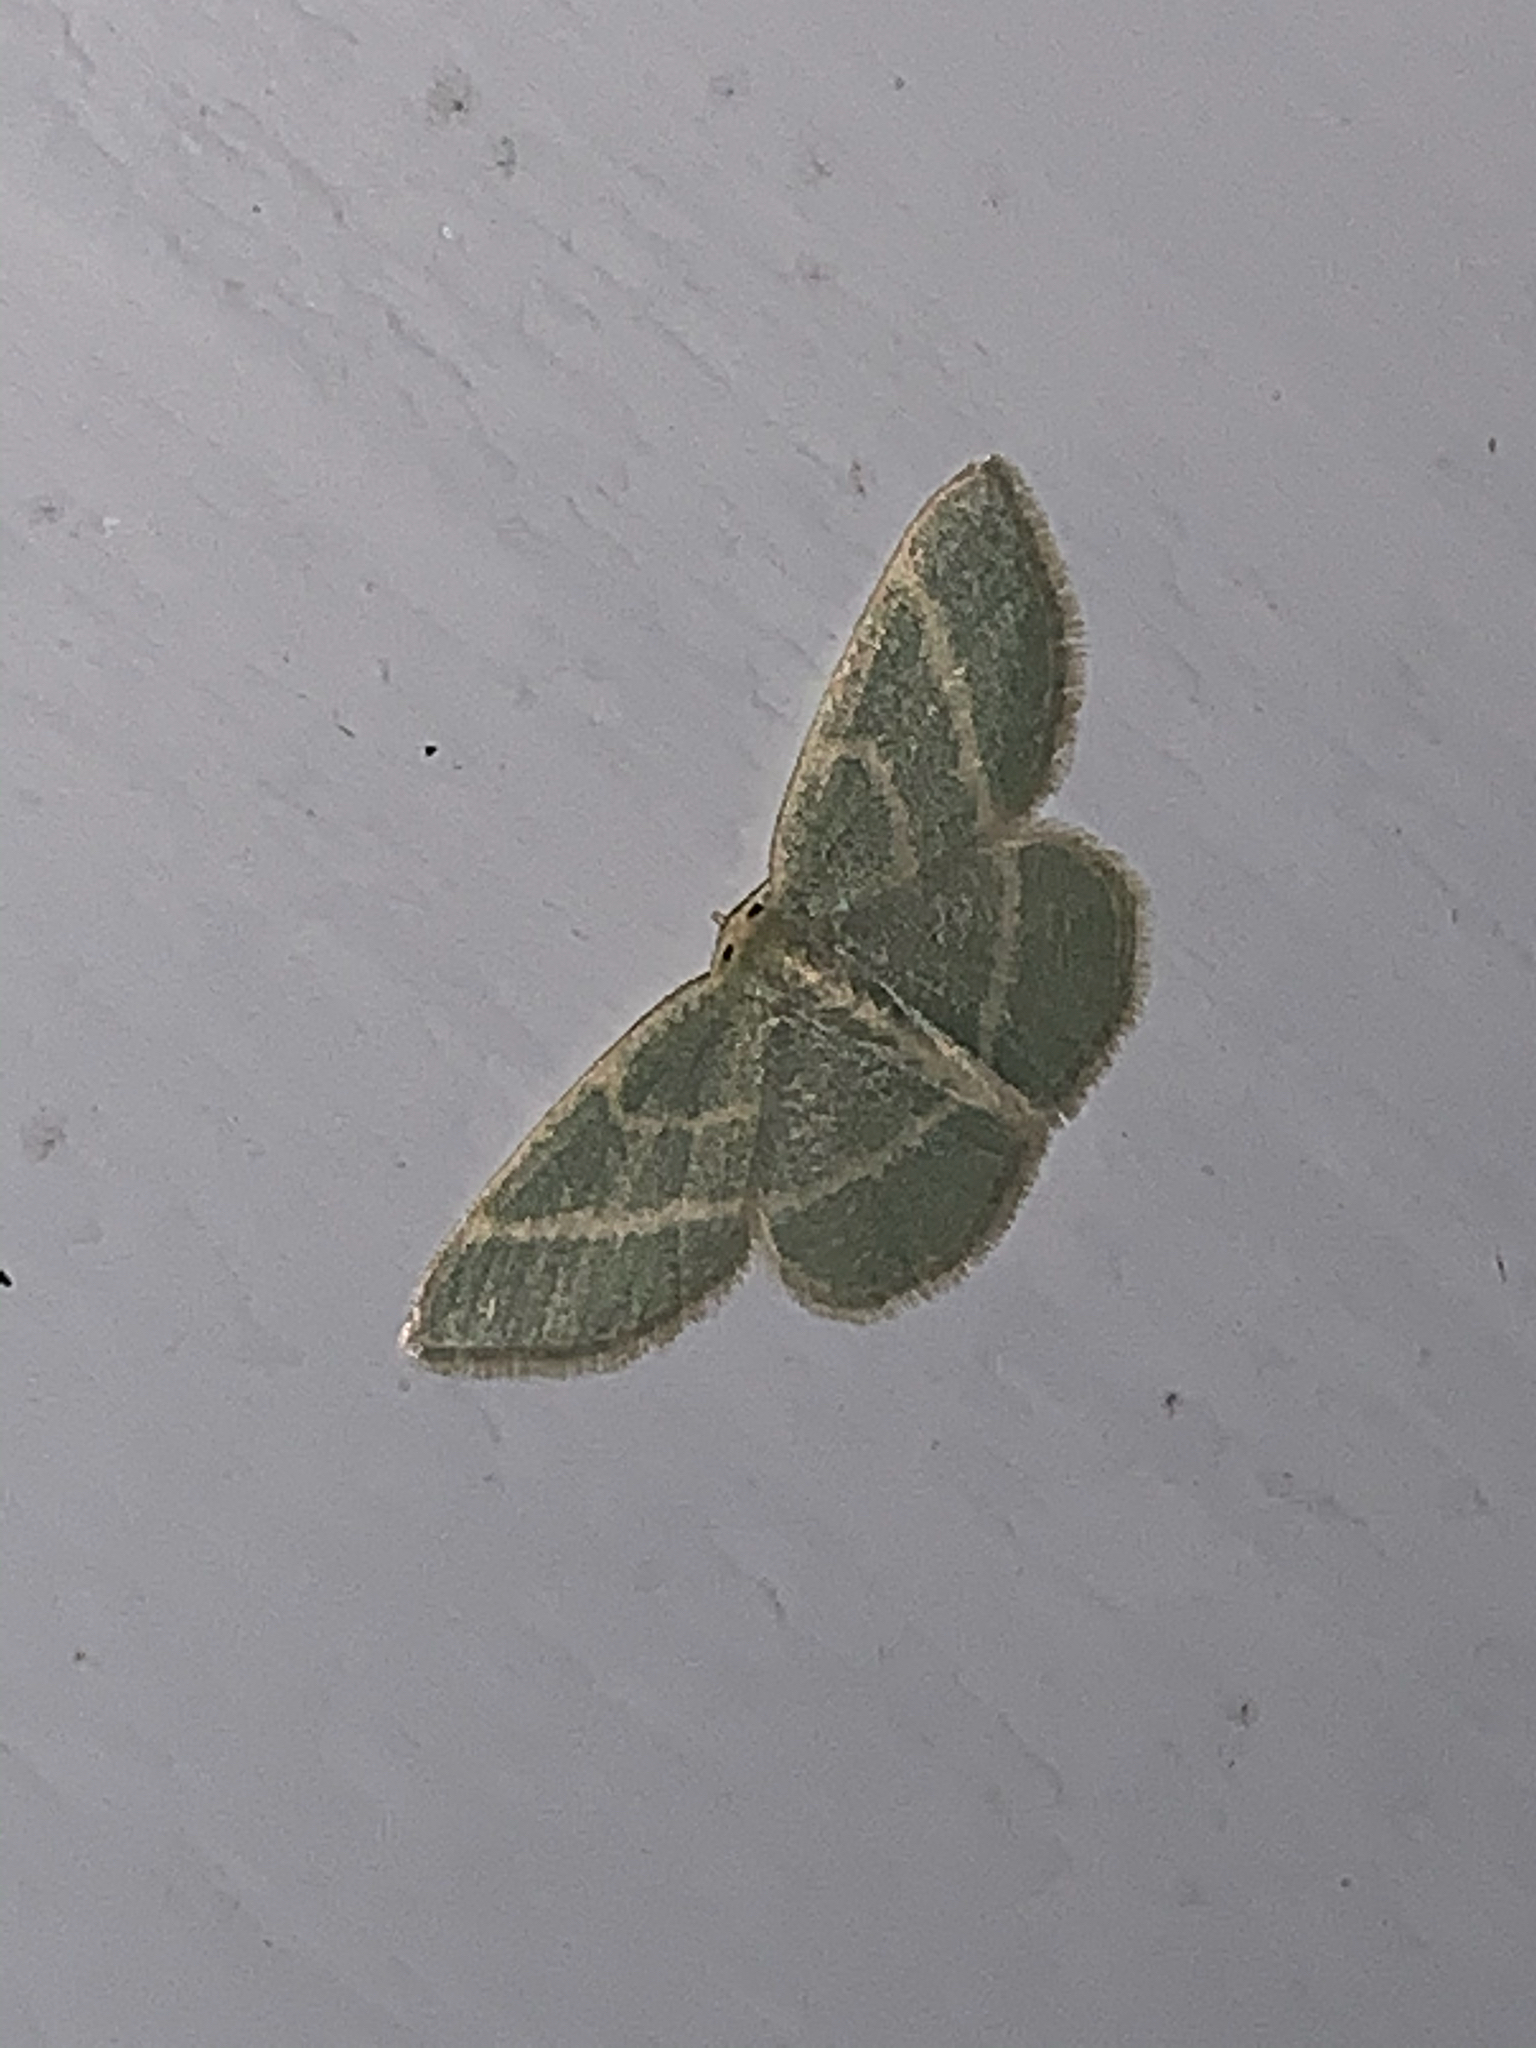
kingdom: Animalia
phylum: Arthropoda
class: Insecta
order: Lepidoptera
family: Geometridae
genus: Chlorochlamys
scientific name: Chlorochlamys chloroleucaria
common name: Blackberry looper
